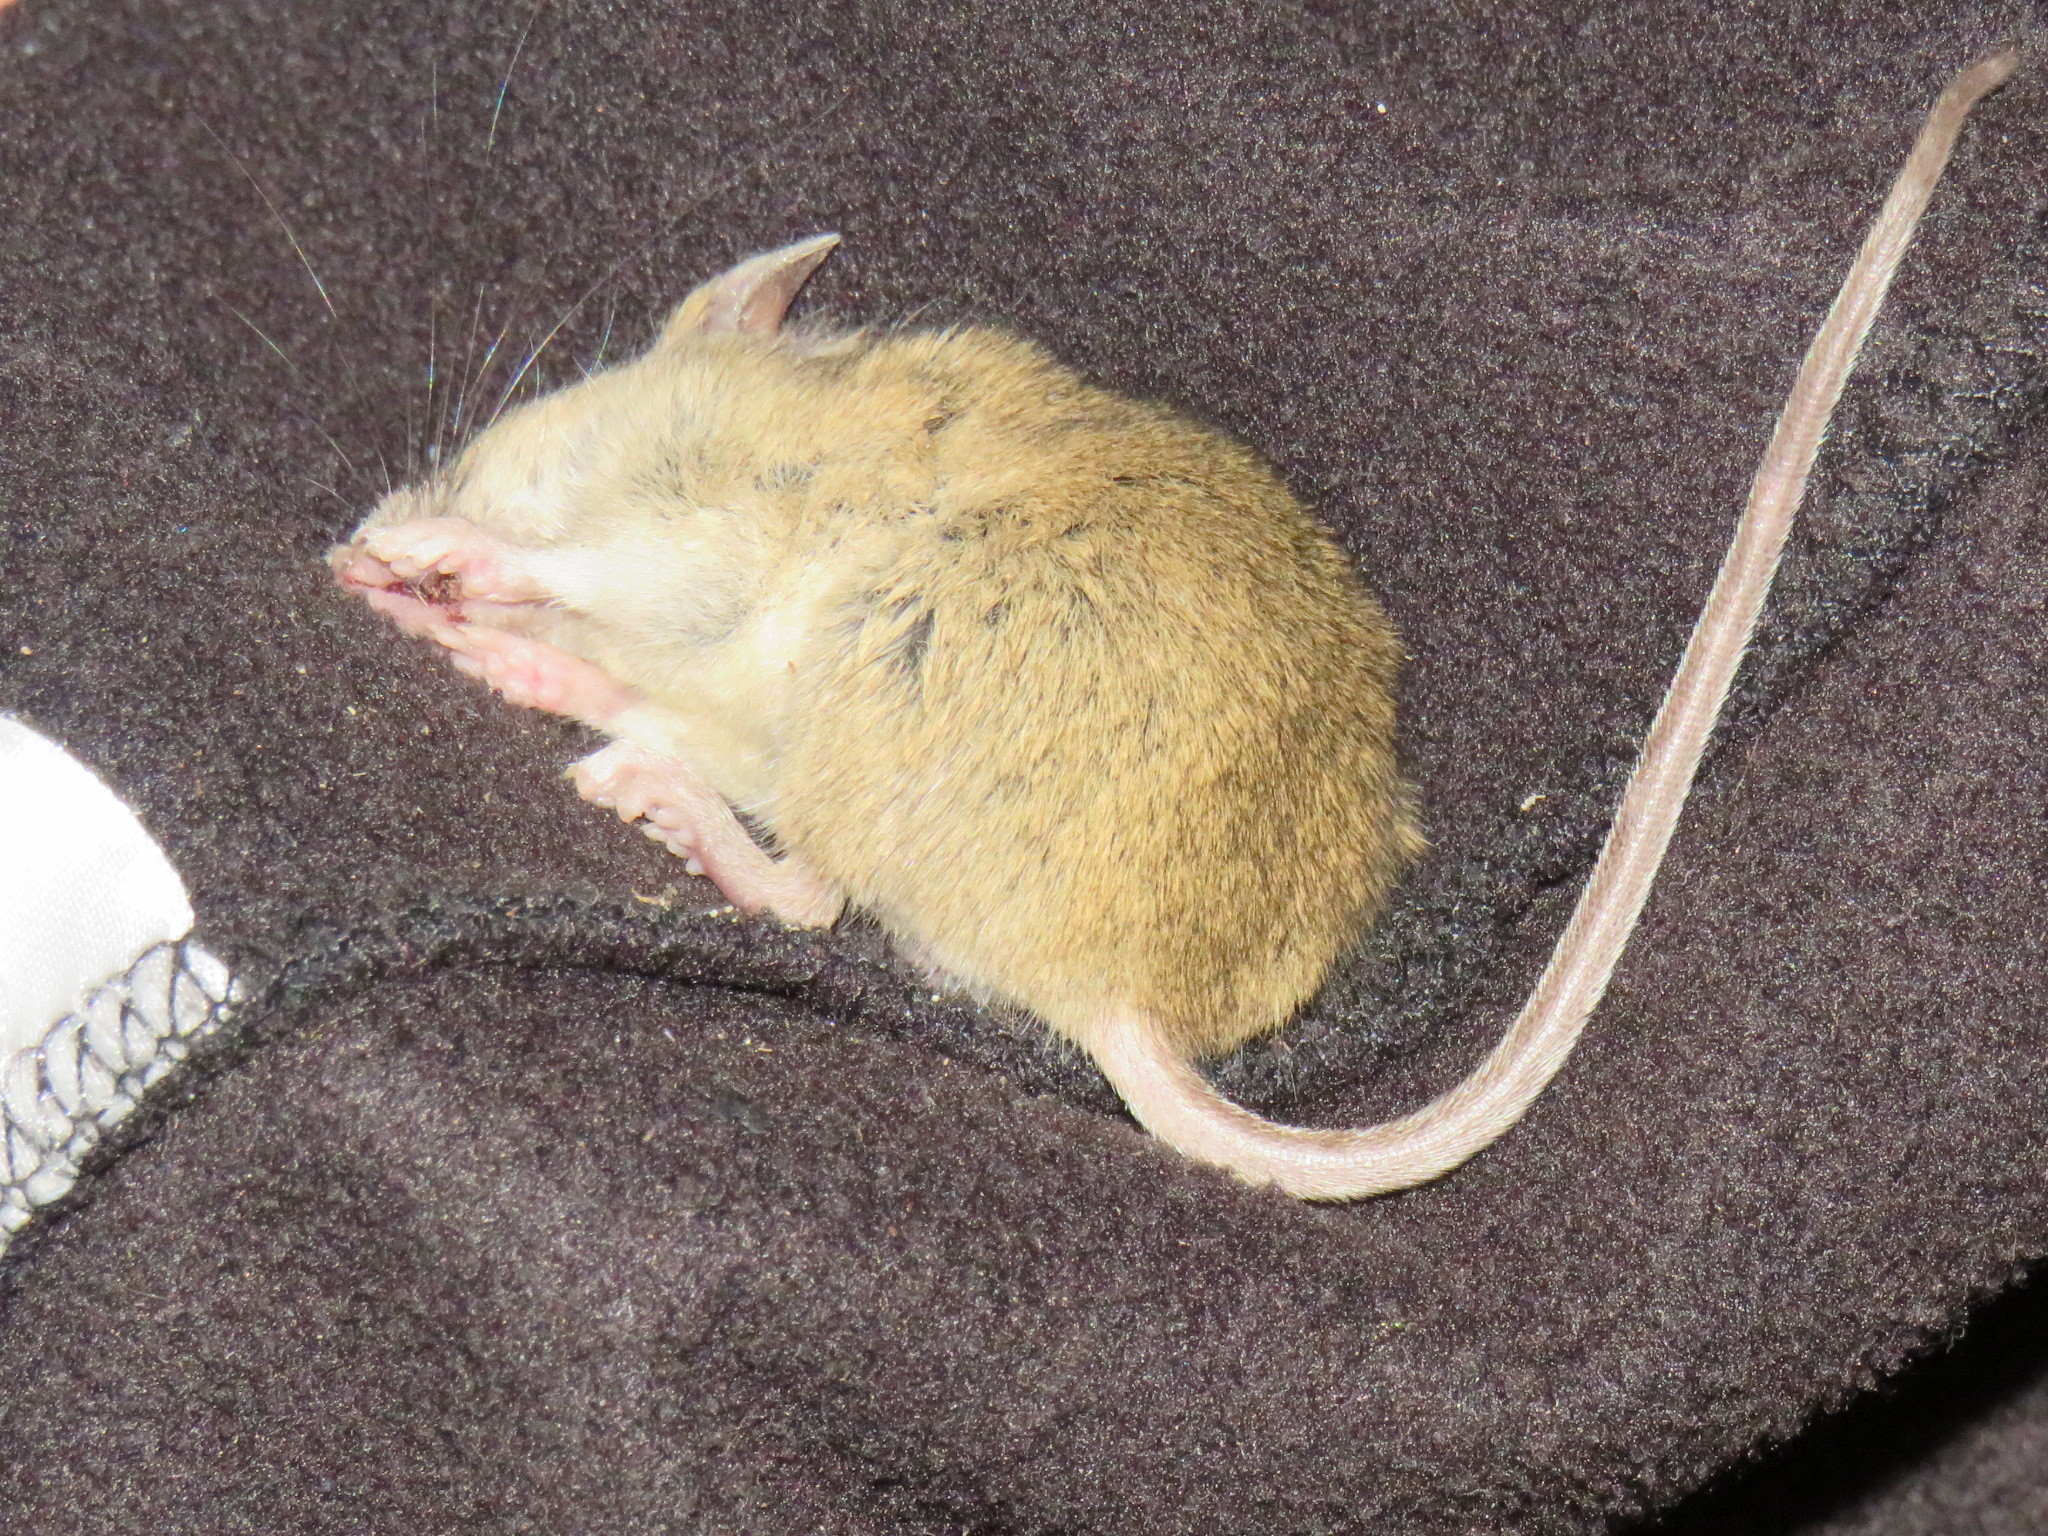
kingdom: Animalia
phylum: Chordata
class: Mammalia
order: Rodentia
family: Muridae
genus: Micaelamys
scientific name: Micaelamys namaquensis
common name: Namaqua micaelamys
